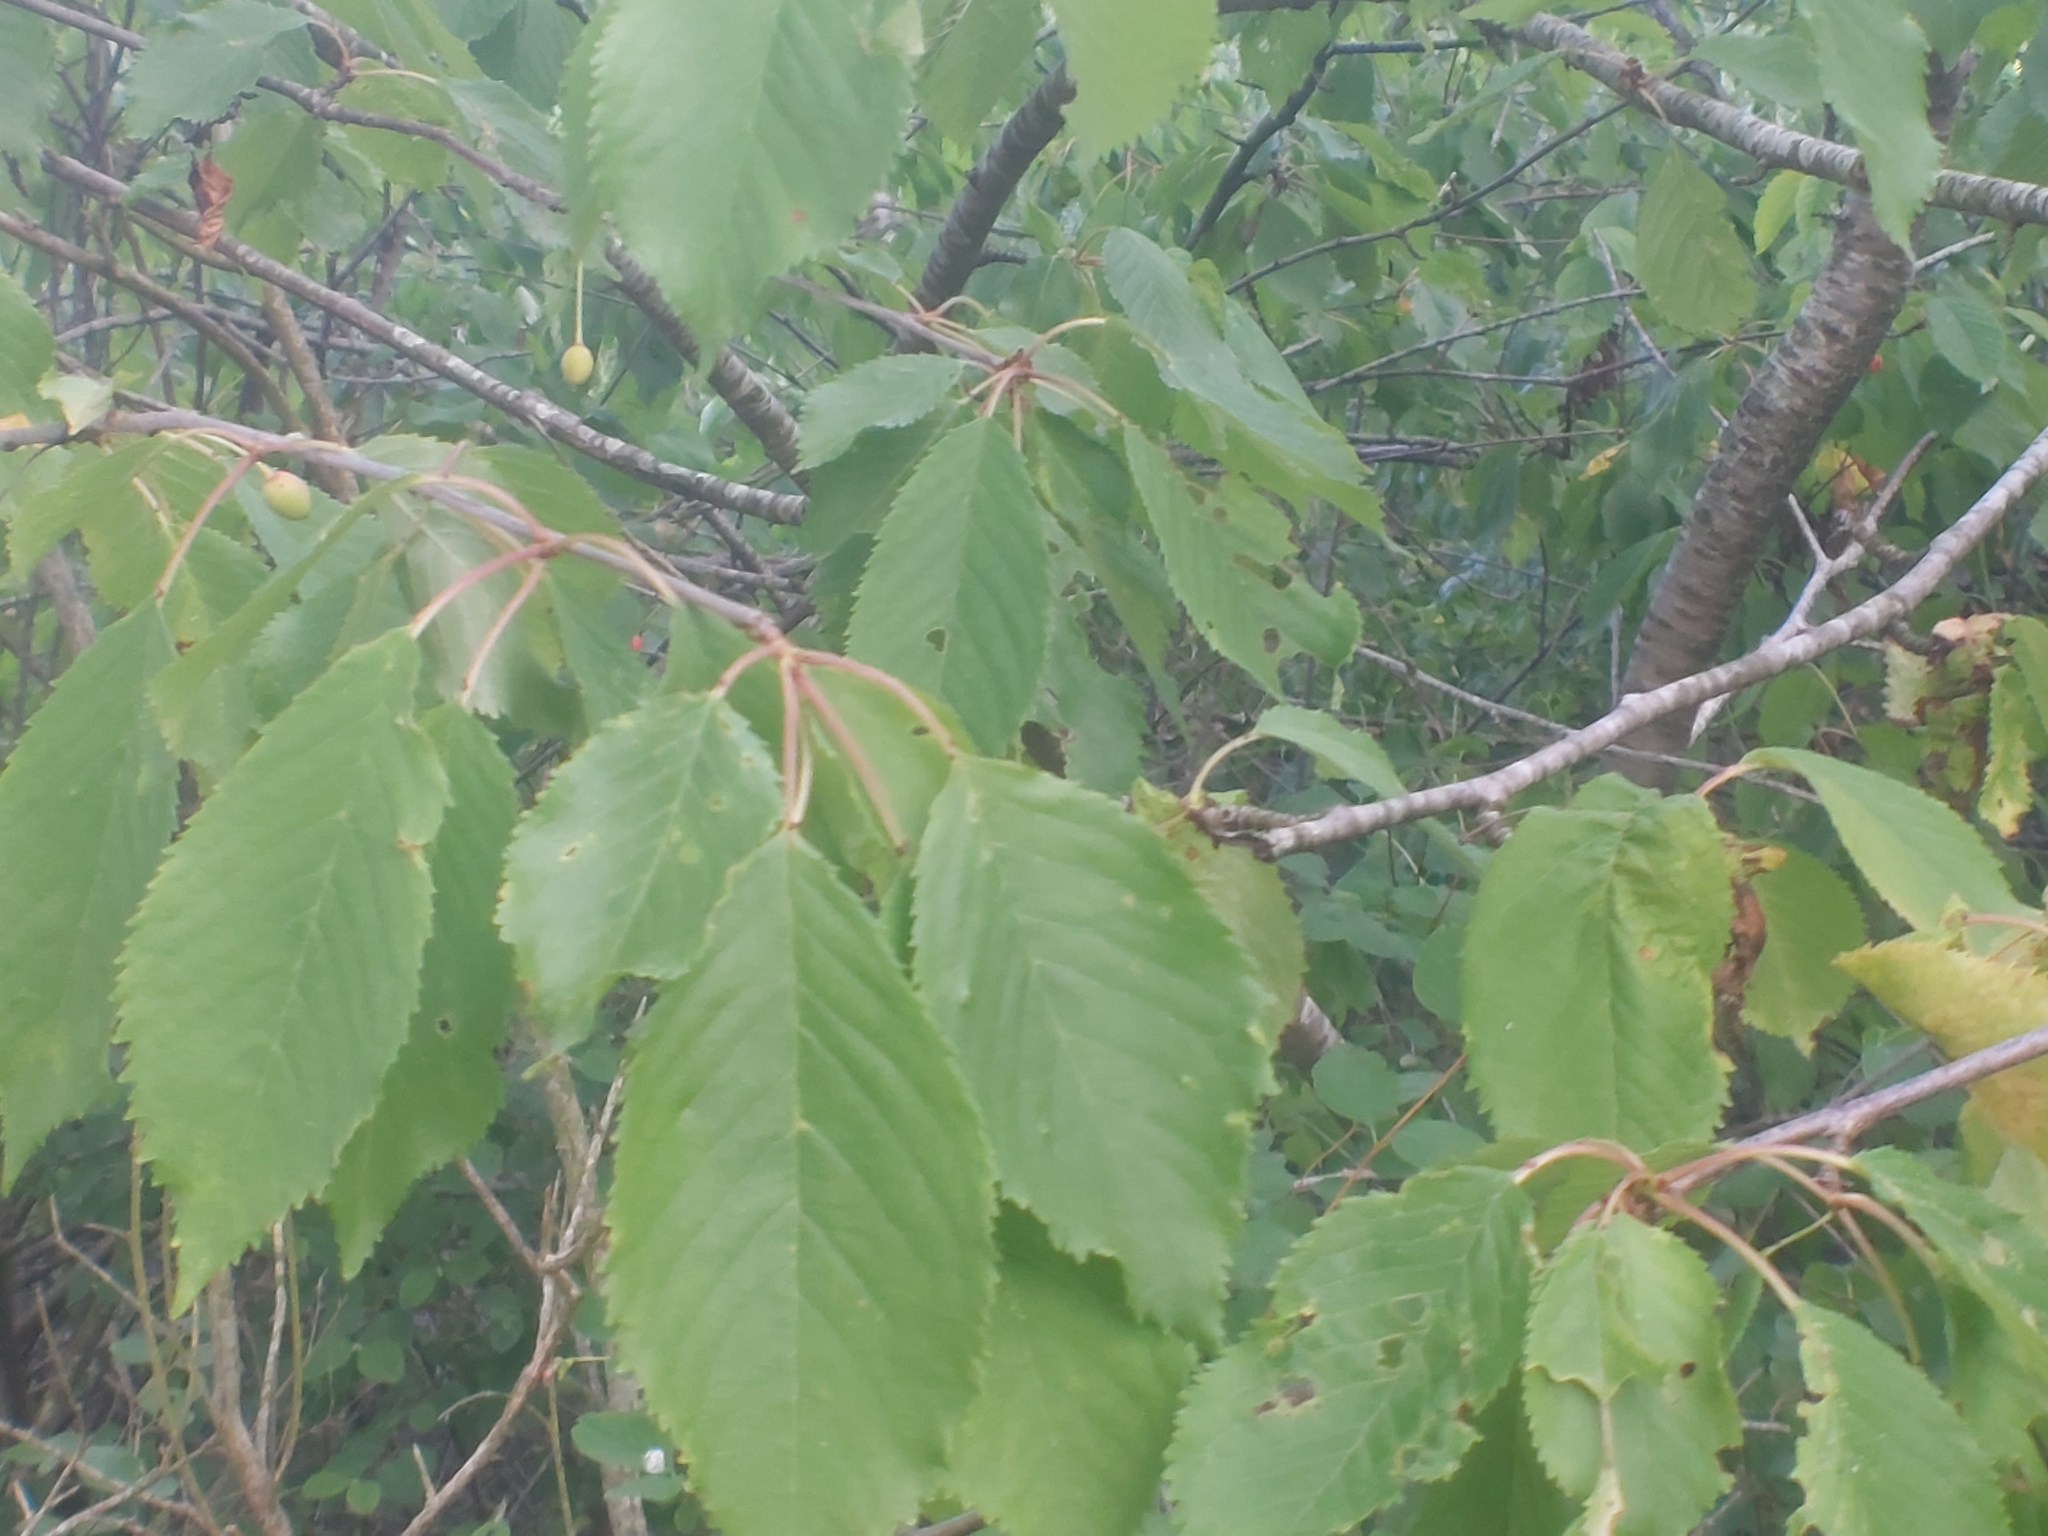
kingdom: Plantae
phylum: Tracheophyta
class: Magnoliopsida
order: Rosales
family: Rosaceae
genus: Prunus
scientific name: Prunus avium
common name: Sweet cherry
